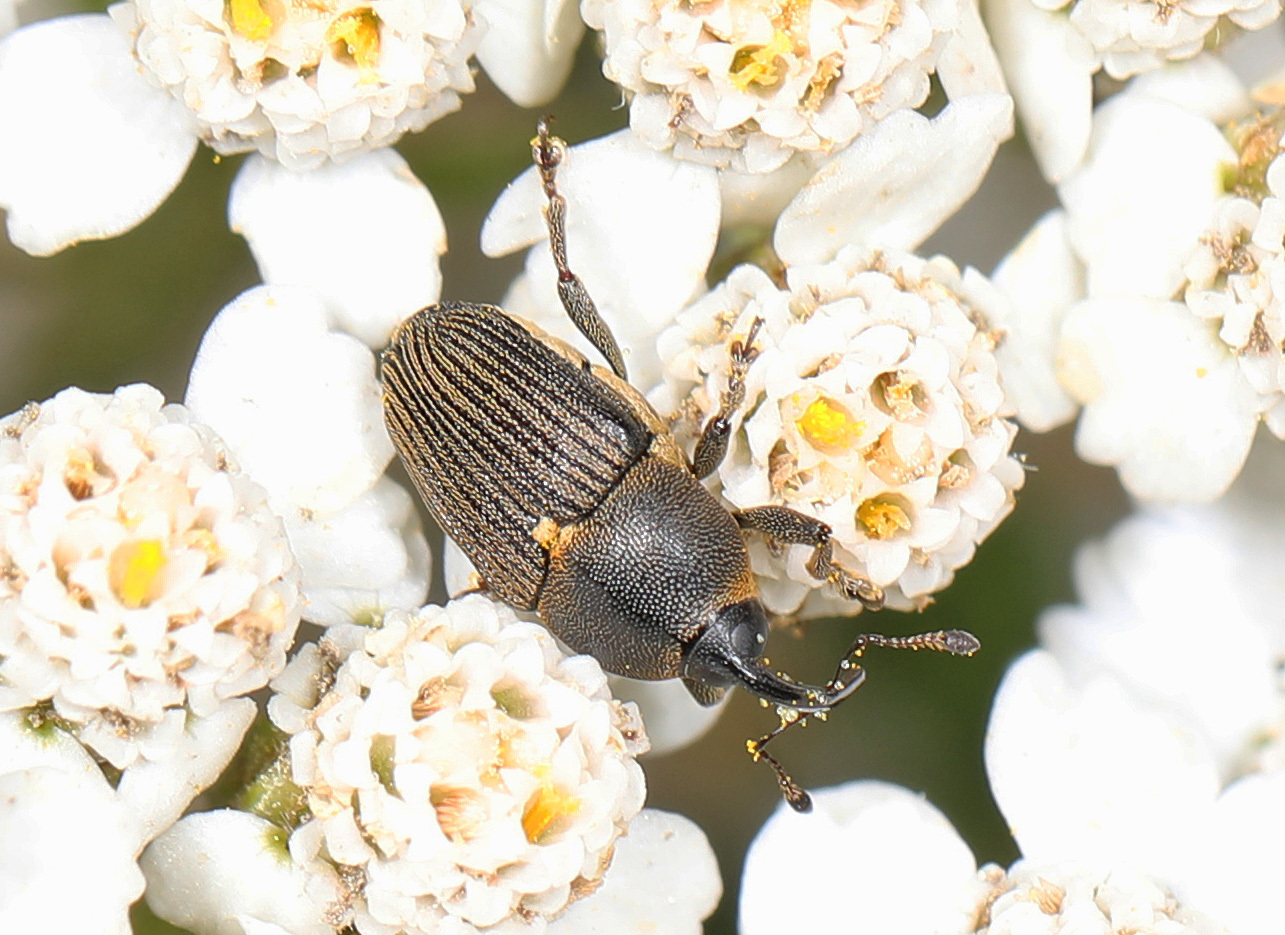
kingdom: Animalia
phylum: Arthropoda
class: Insecta
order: Coleoptera
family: Curculionidae
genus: Odontocorynus
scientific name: Odontocorynus salebrosus
